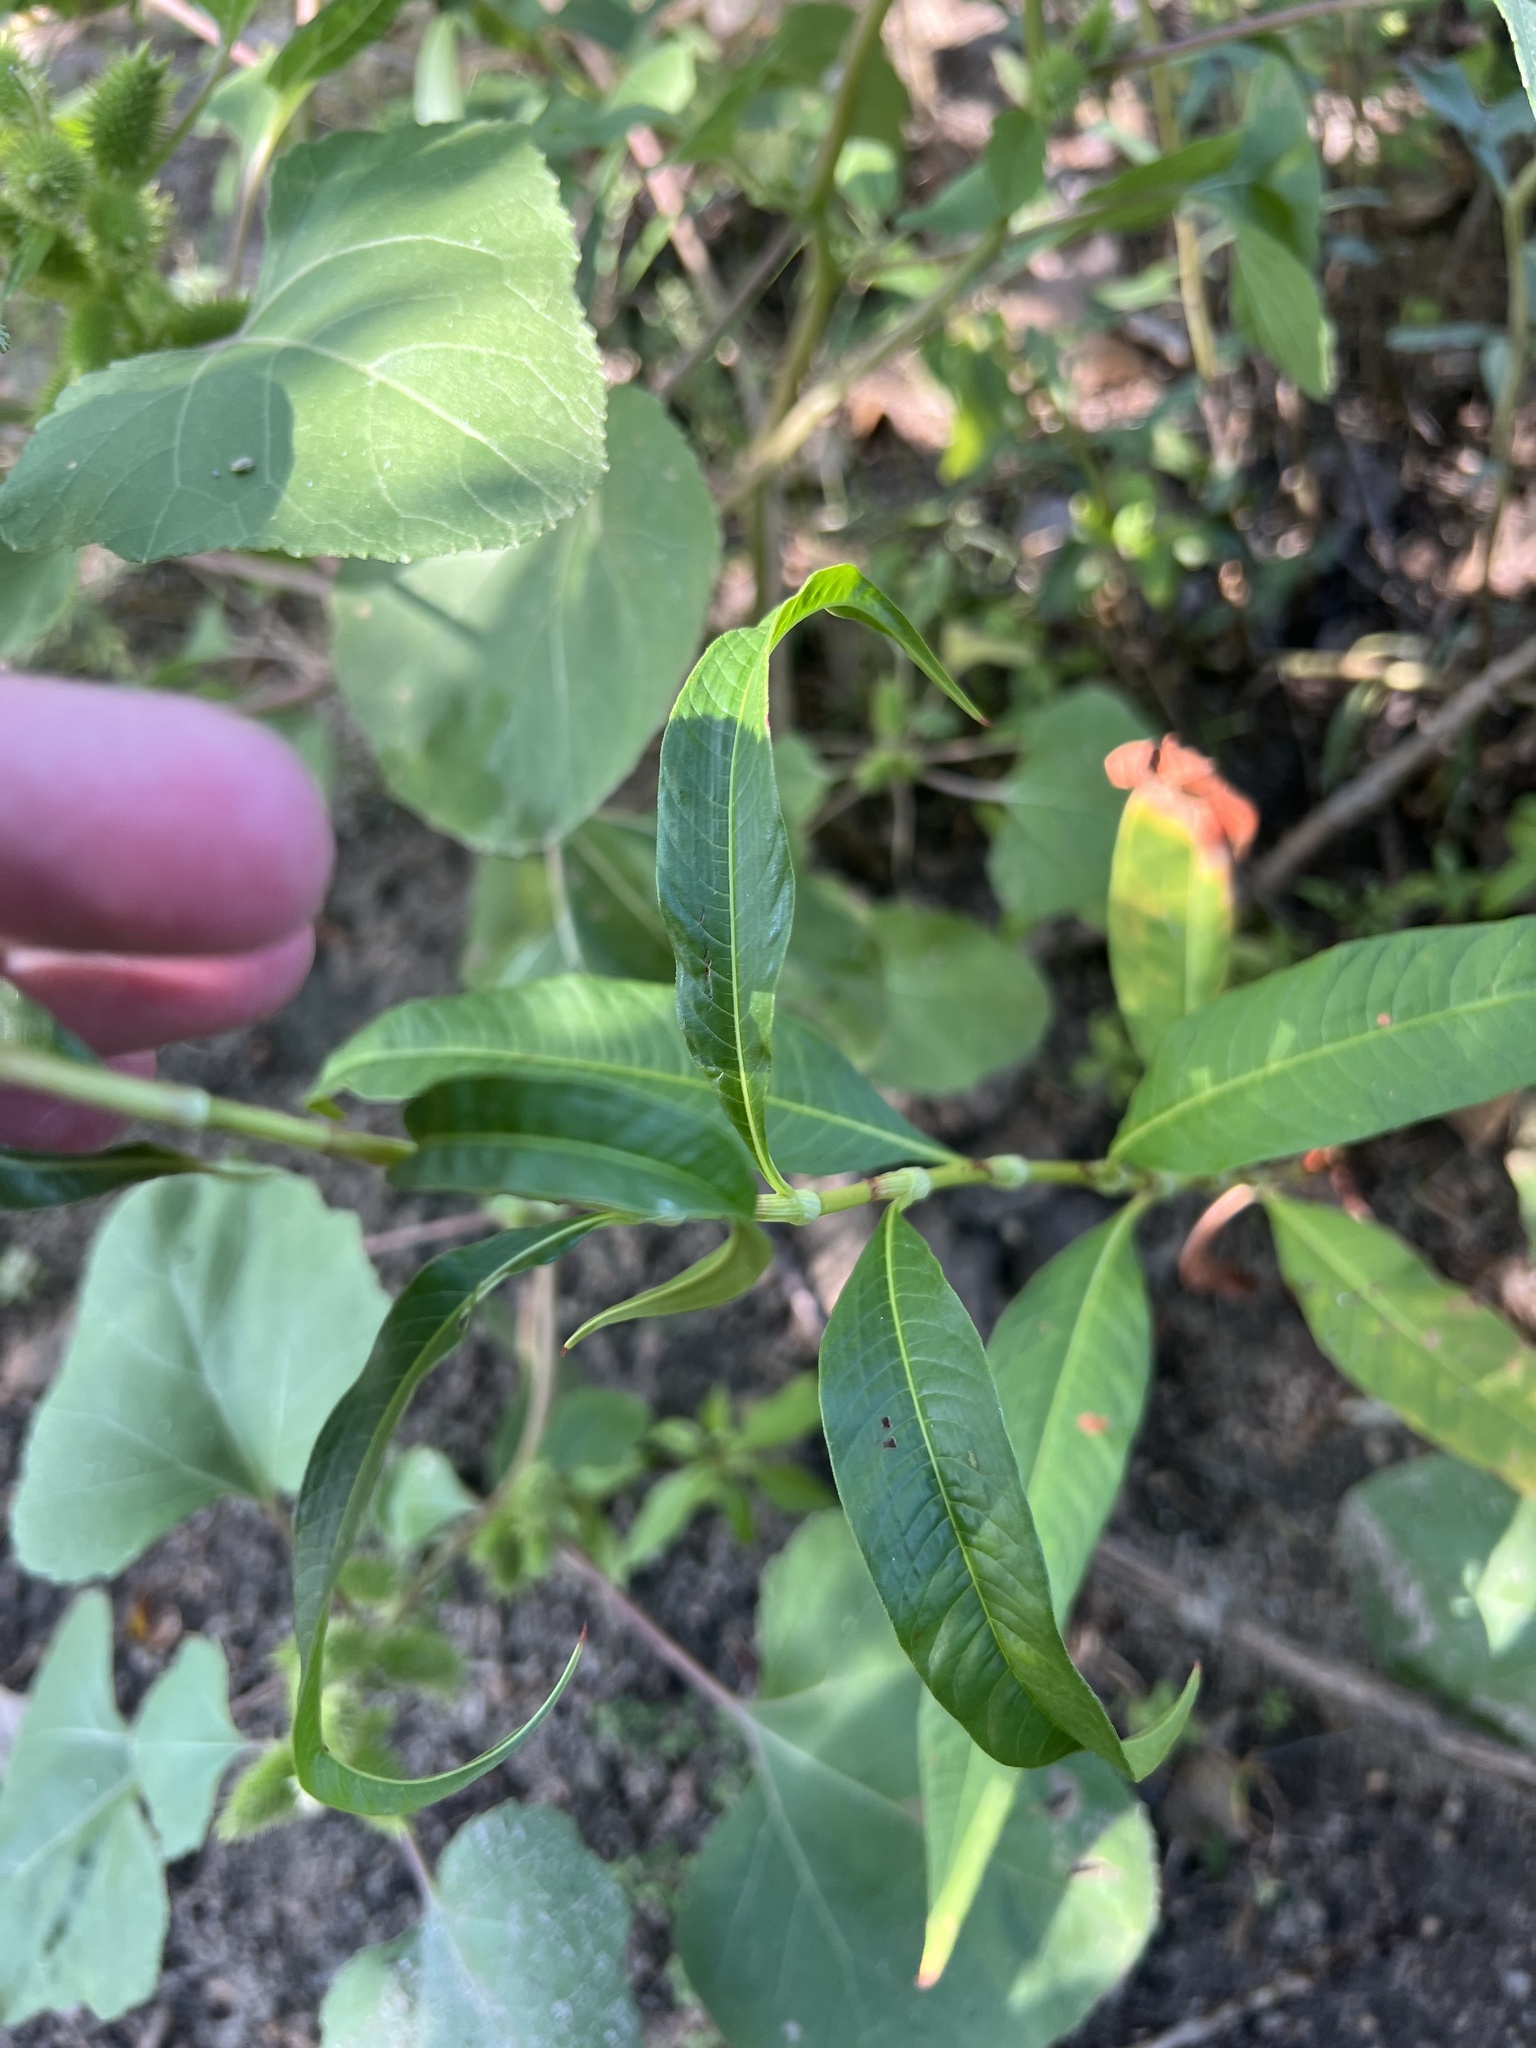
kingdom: Plantae
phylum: Tracheophyta
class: Magnoliopsida
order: Caryophyllales
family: Polygonaceae
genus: Persicaria
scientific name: Persicaria lapathifolia
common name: Curlytop knotweed
